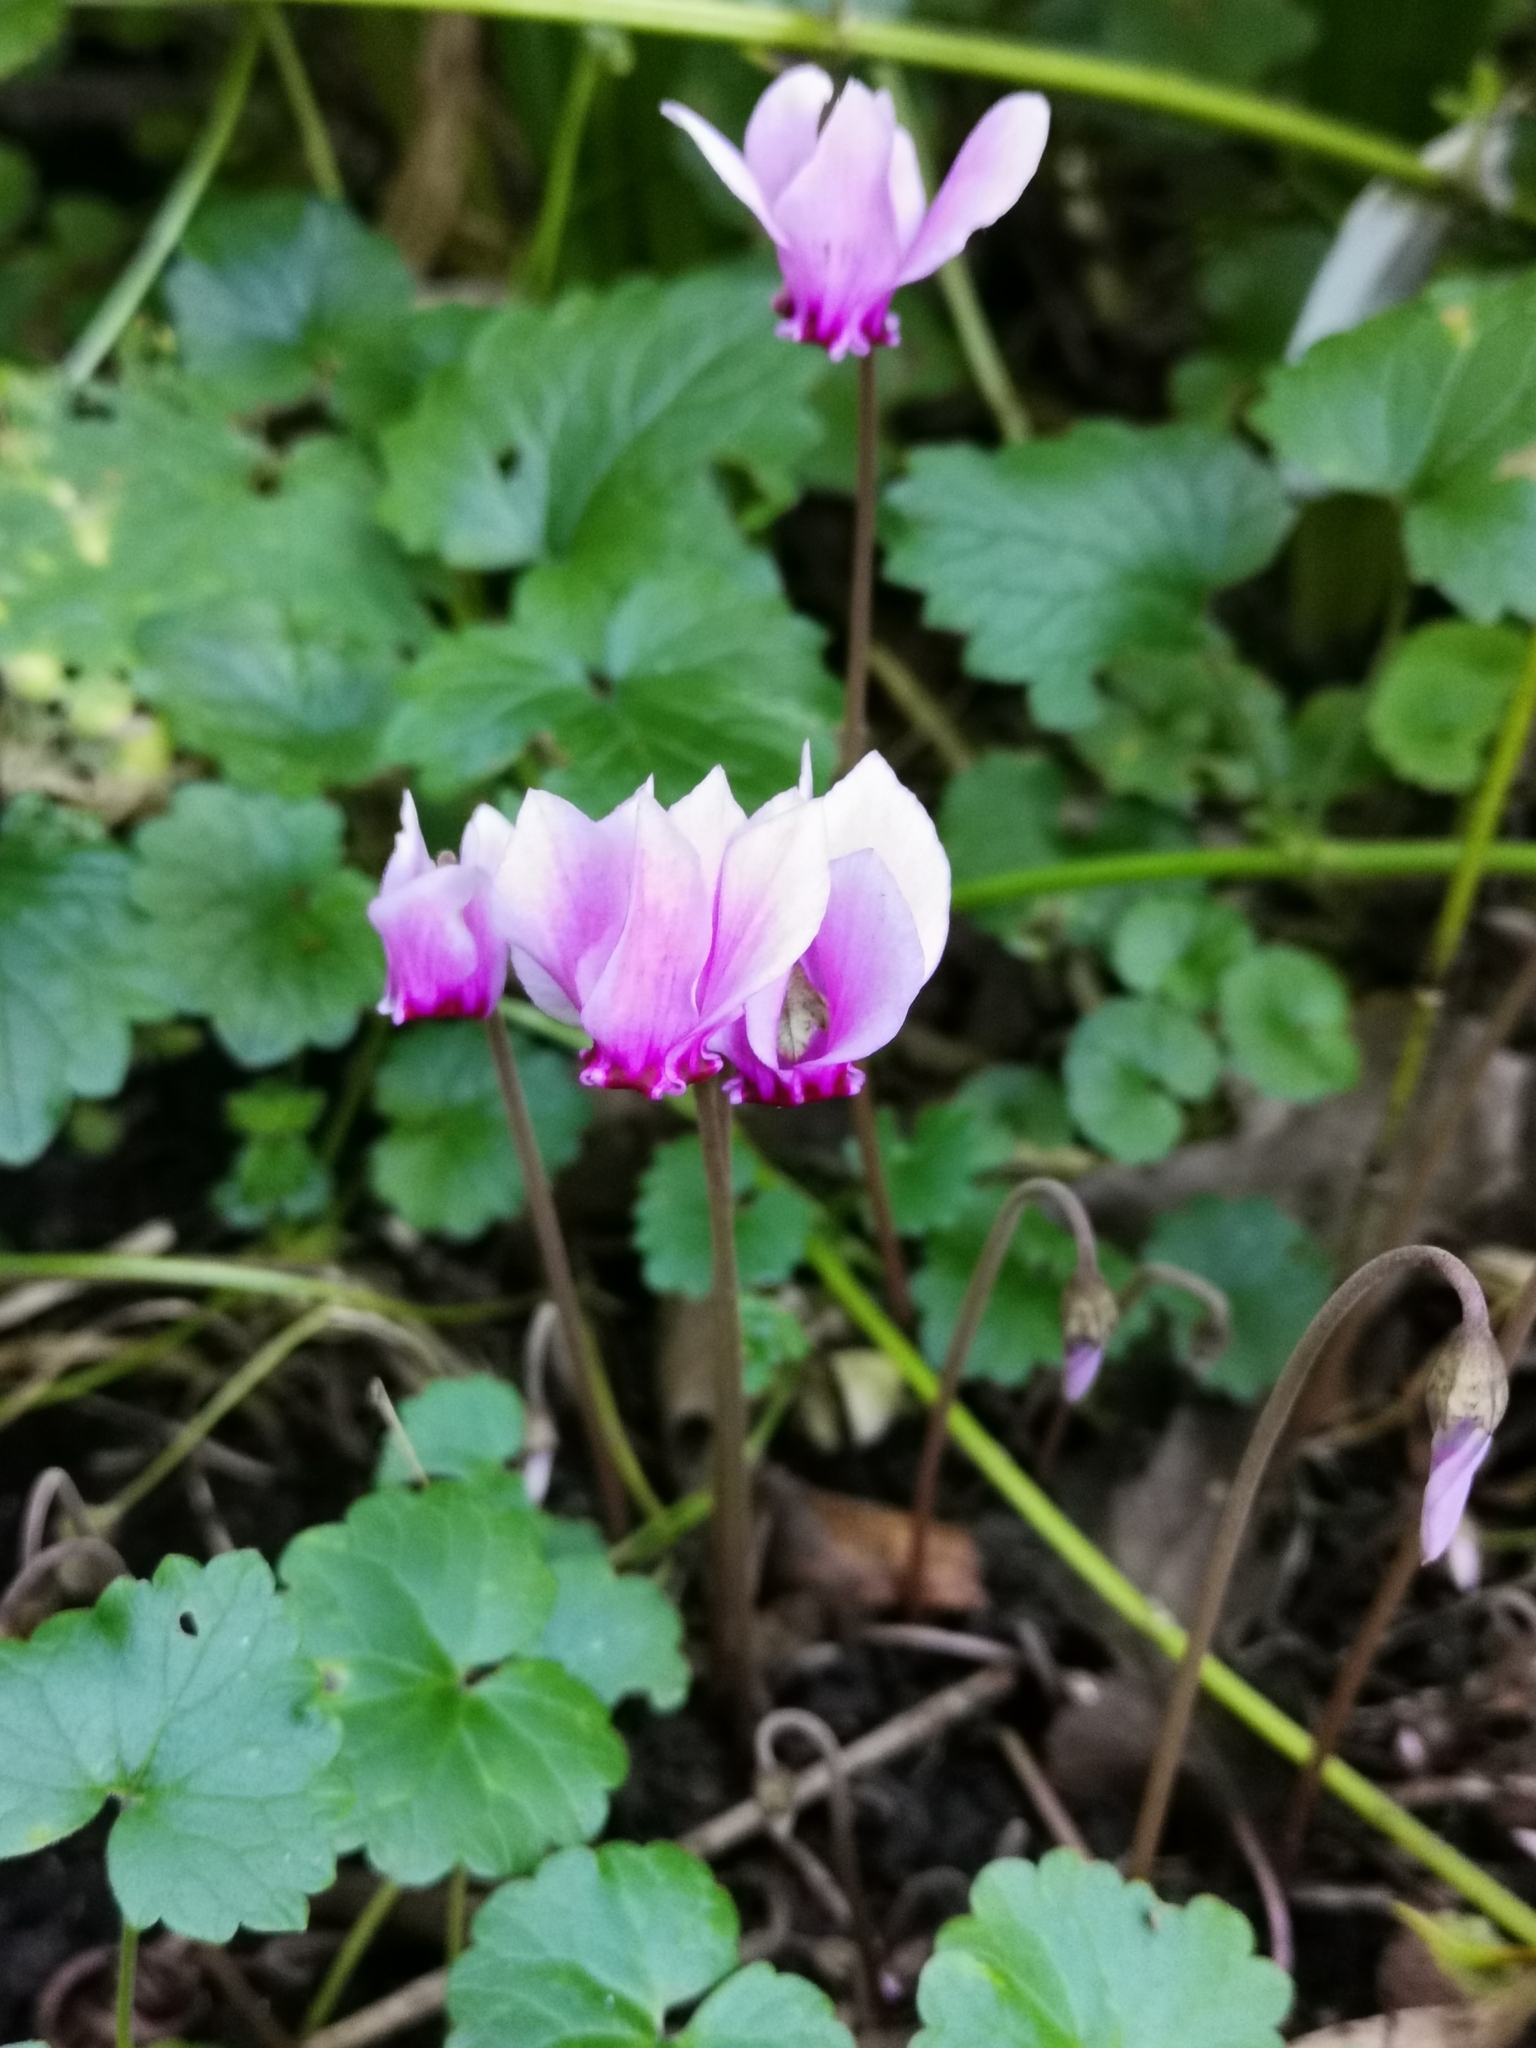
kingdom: Plantae
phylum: Tracheophyta
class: Magnoliopsida
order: Ericales
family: Primulaceae
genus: Cyclamen
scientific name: Cyclamen hederifolium
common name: Sowbread
